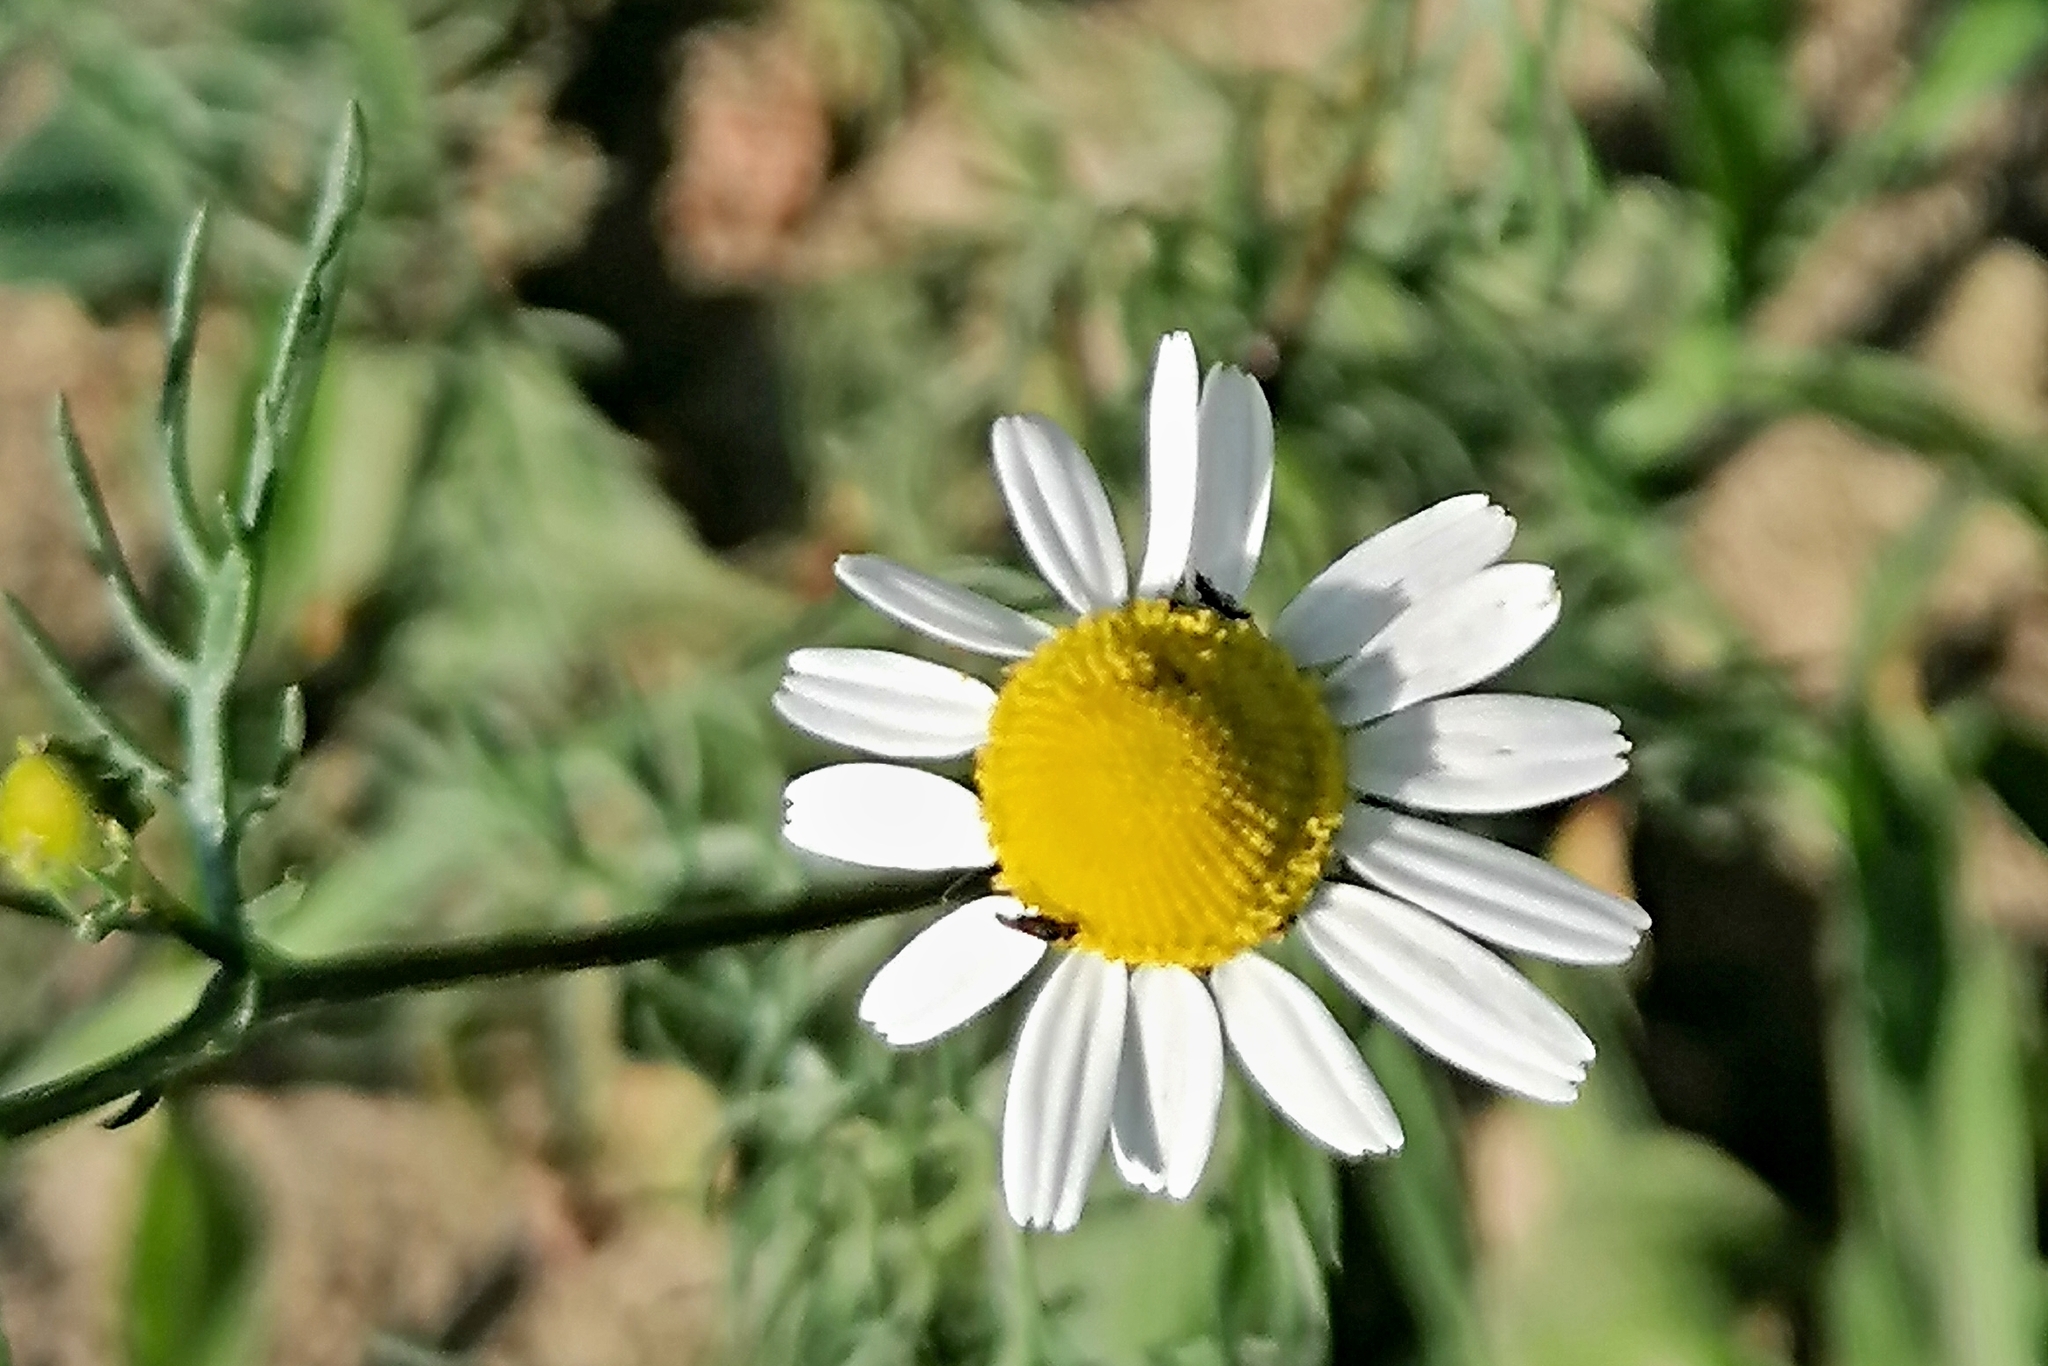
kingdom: Plantae
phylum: Tracheophyta
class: Magnoliopsida
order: Asterales
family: Asteraceae
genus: Matricaria
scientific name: Matricaria chamomilla
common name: Scented mayweed
